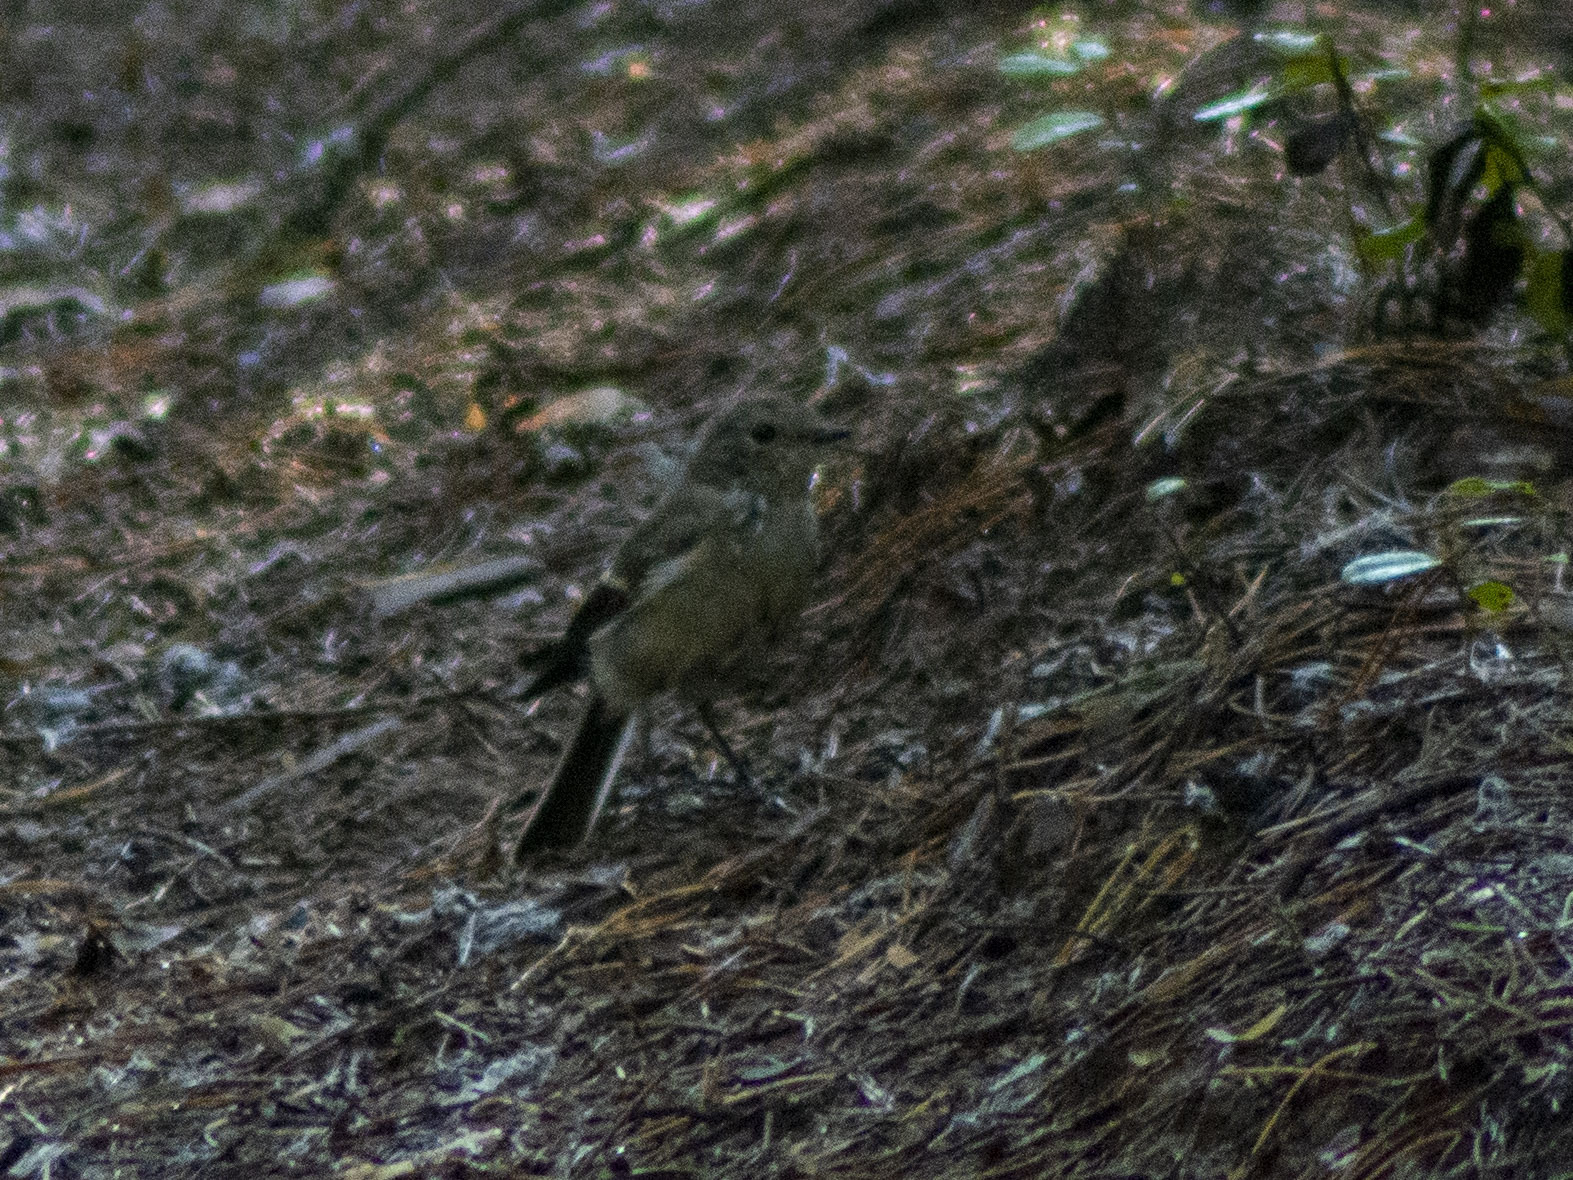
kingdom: Animalia
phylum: Chordata
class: Aves
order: Passeriformes
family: Muscicapidae
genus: Ficedula
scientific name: Ficedula hypoleuca
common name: European pied flycatcher
